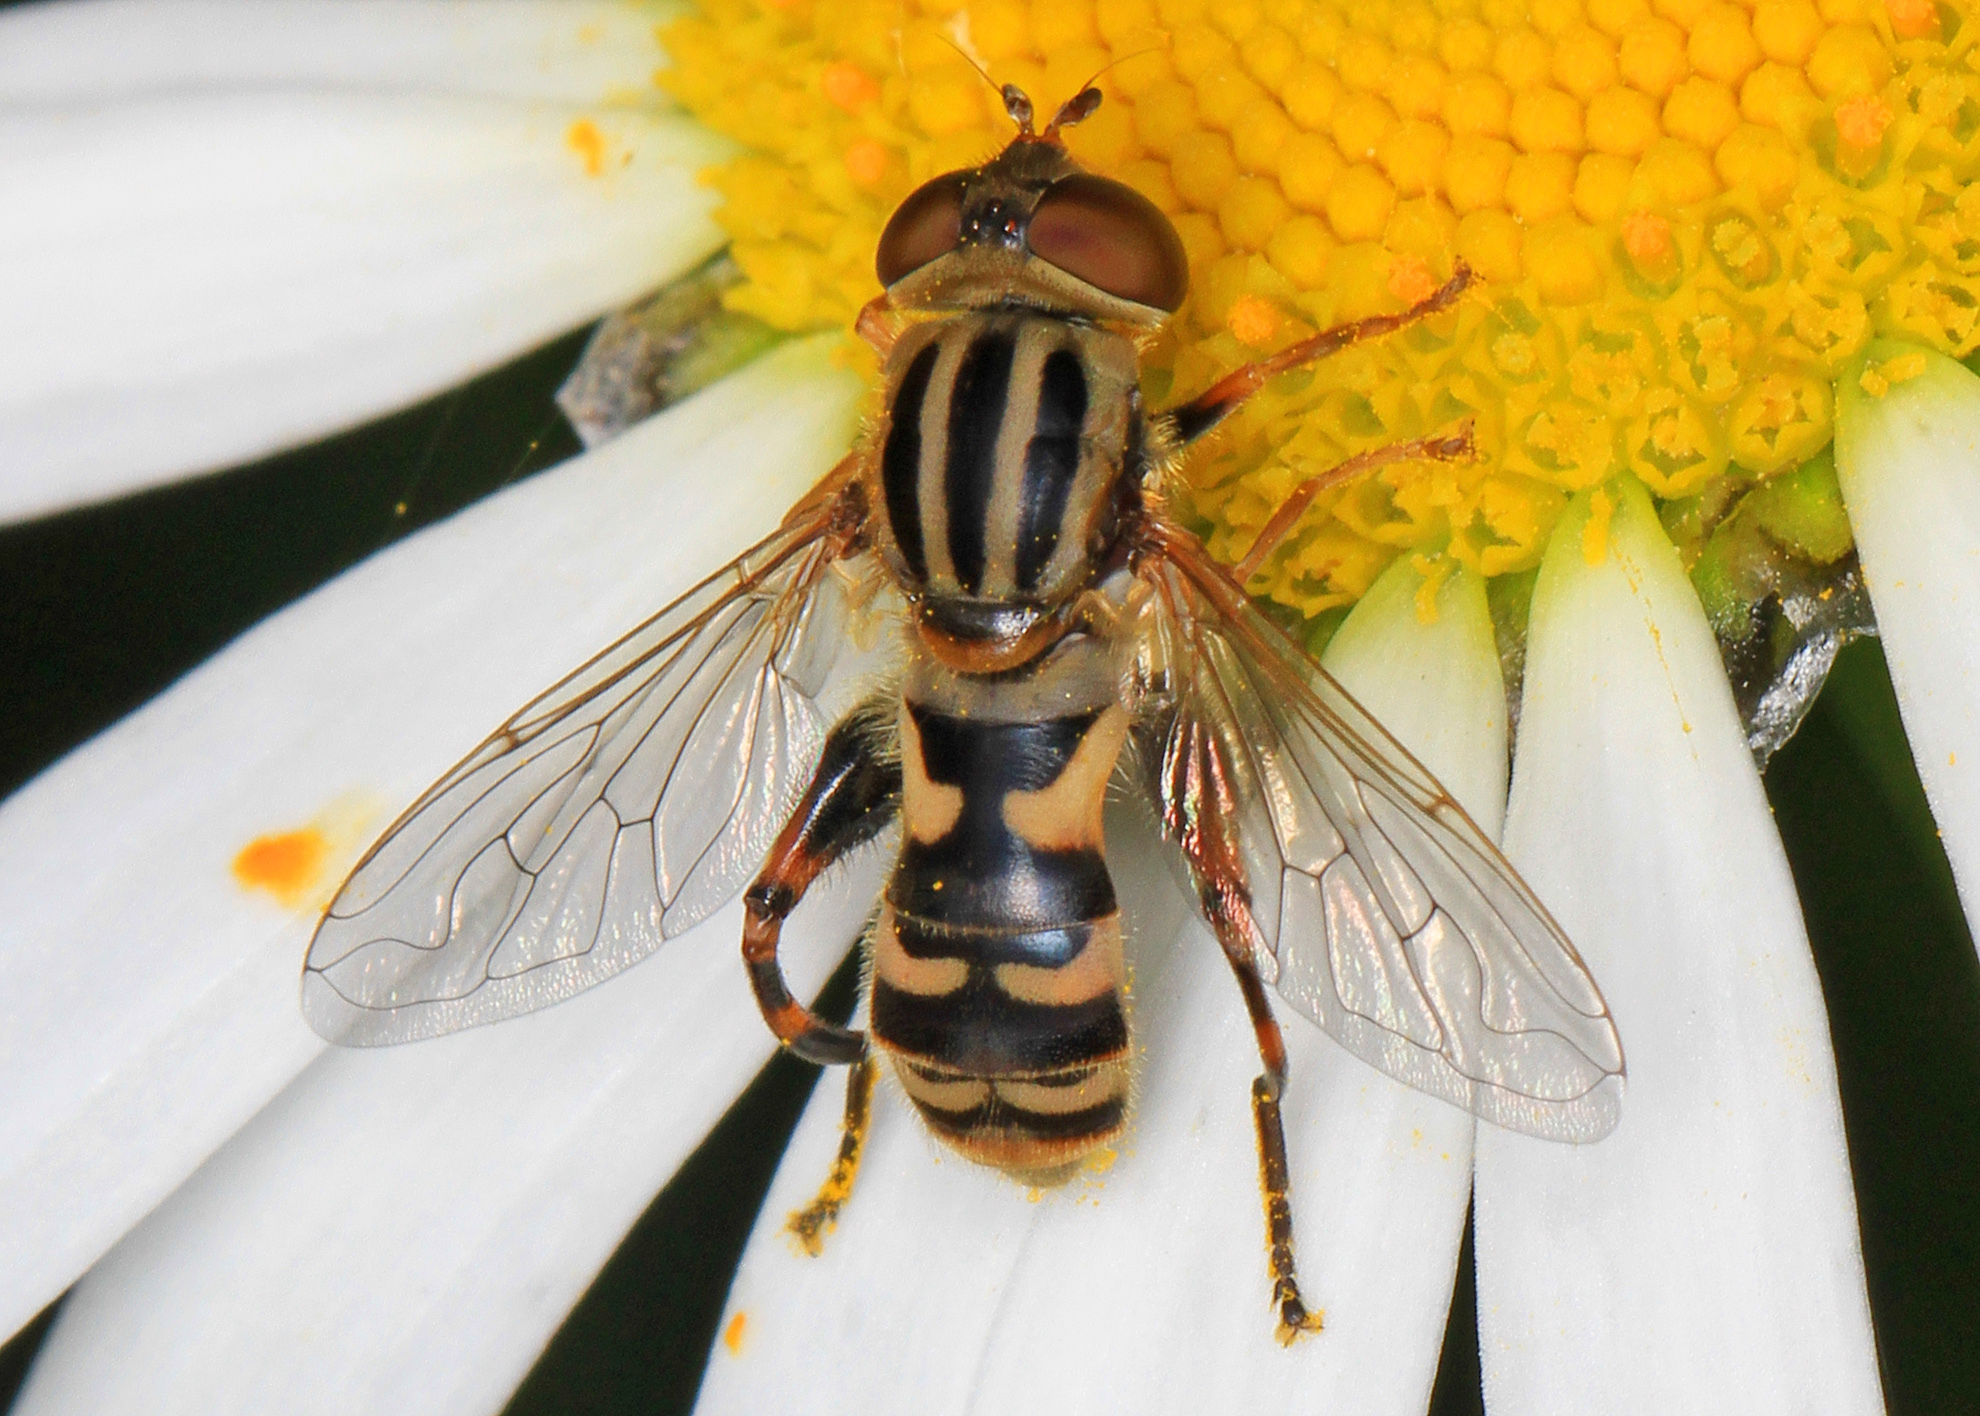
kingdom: Animalia
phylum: Arthropoda
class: Insecta
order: Diptera
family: Syrphidae
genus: Anasimyia
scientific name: Anasimyia chrysostomus
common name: Lump-legged swamp fly
